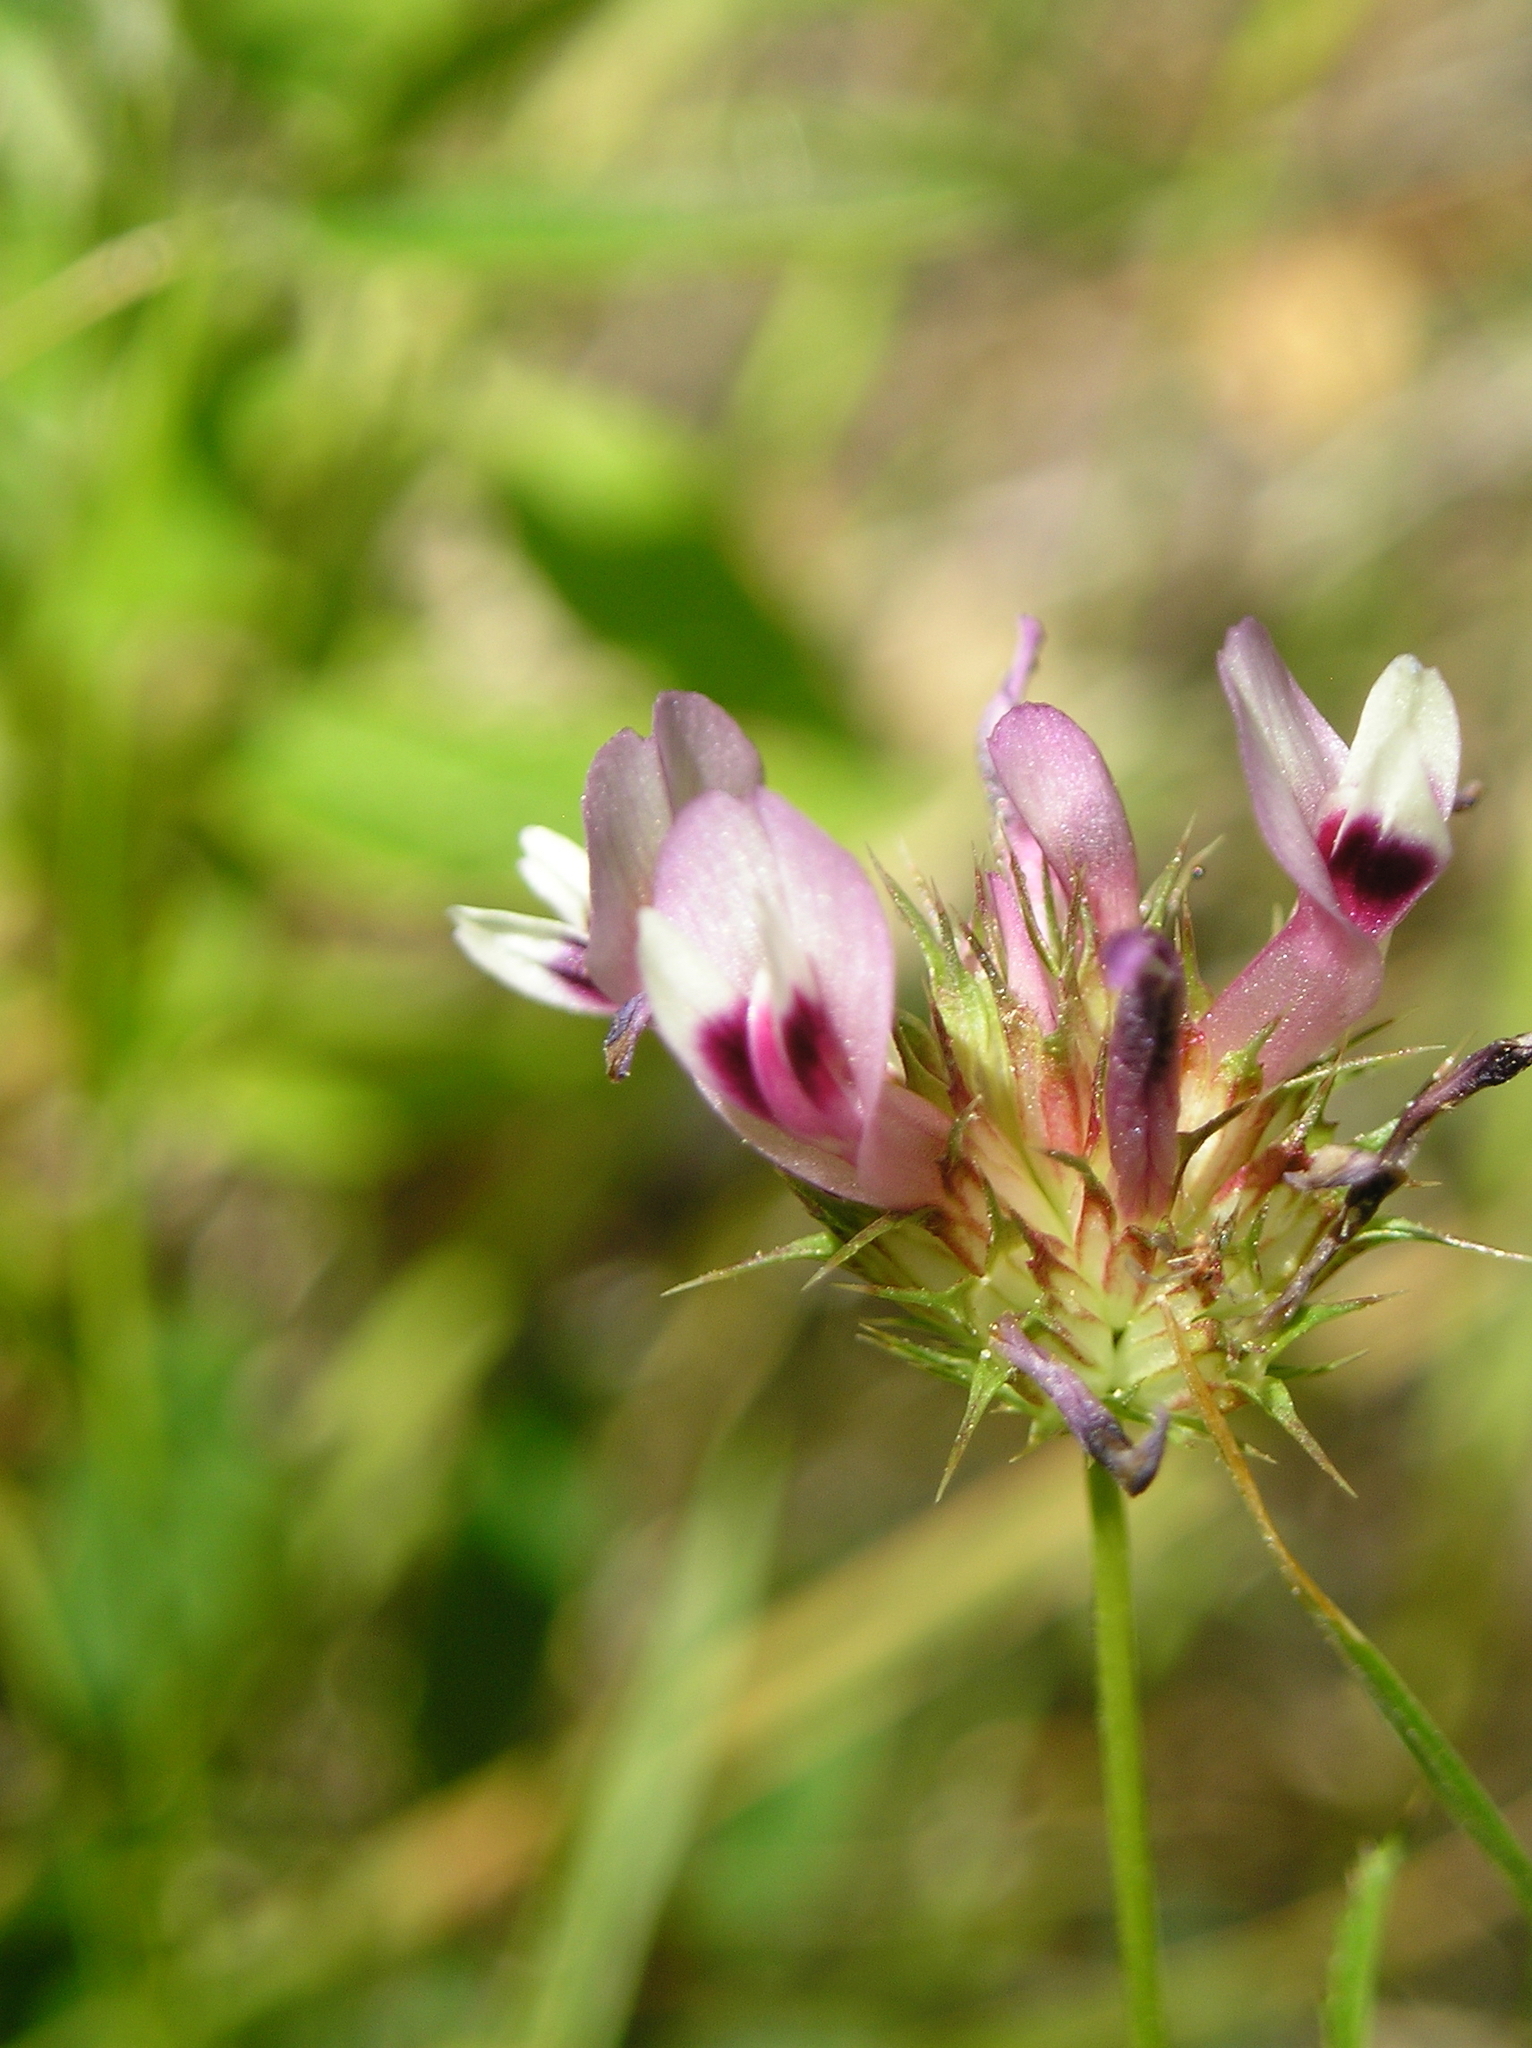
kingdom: Plantae
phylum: Tracheophyta
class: Magnoliopsida
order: Fabales
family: Fabaceae
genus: Trifolium
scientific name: Trifolium willdenovii
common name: Tomcat clover
